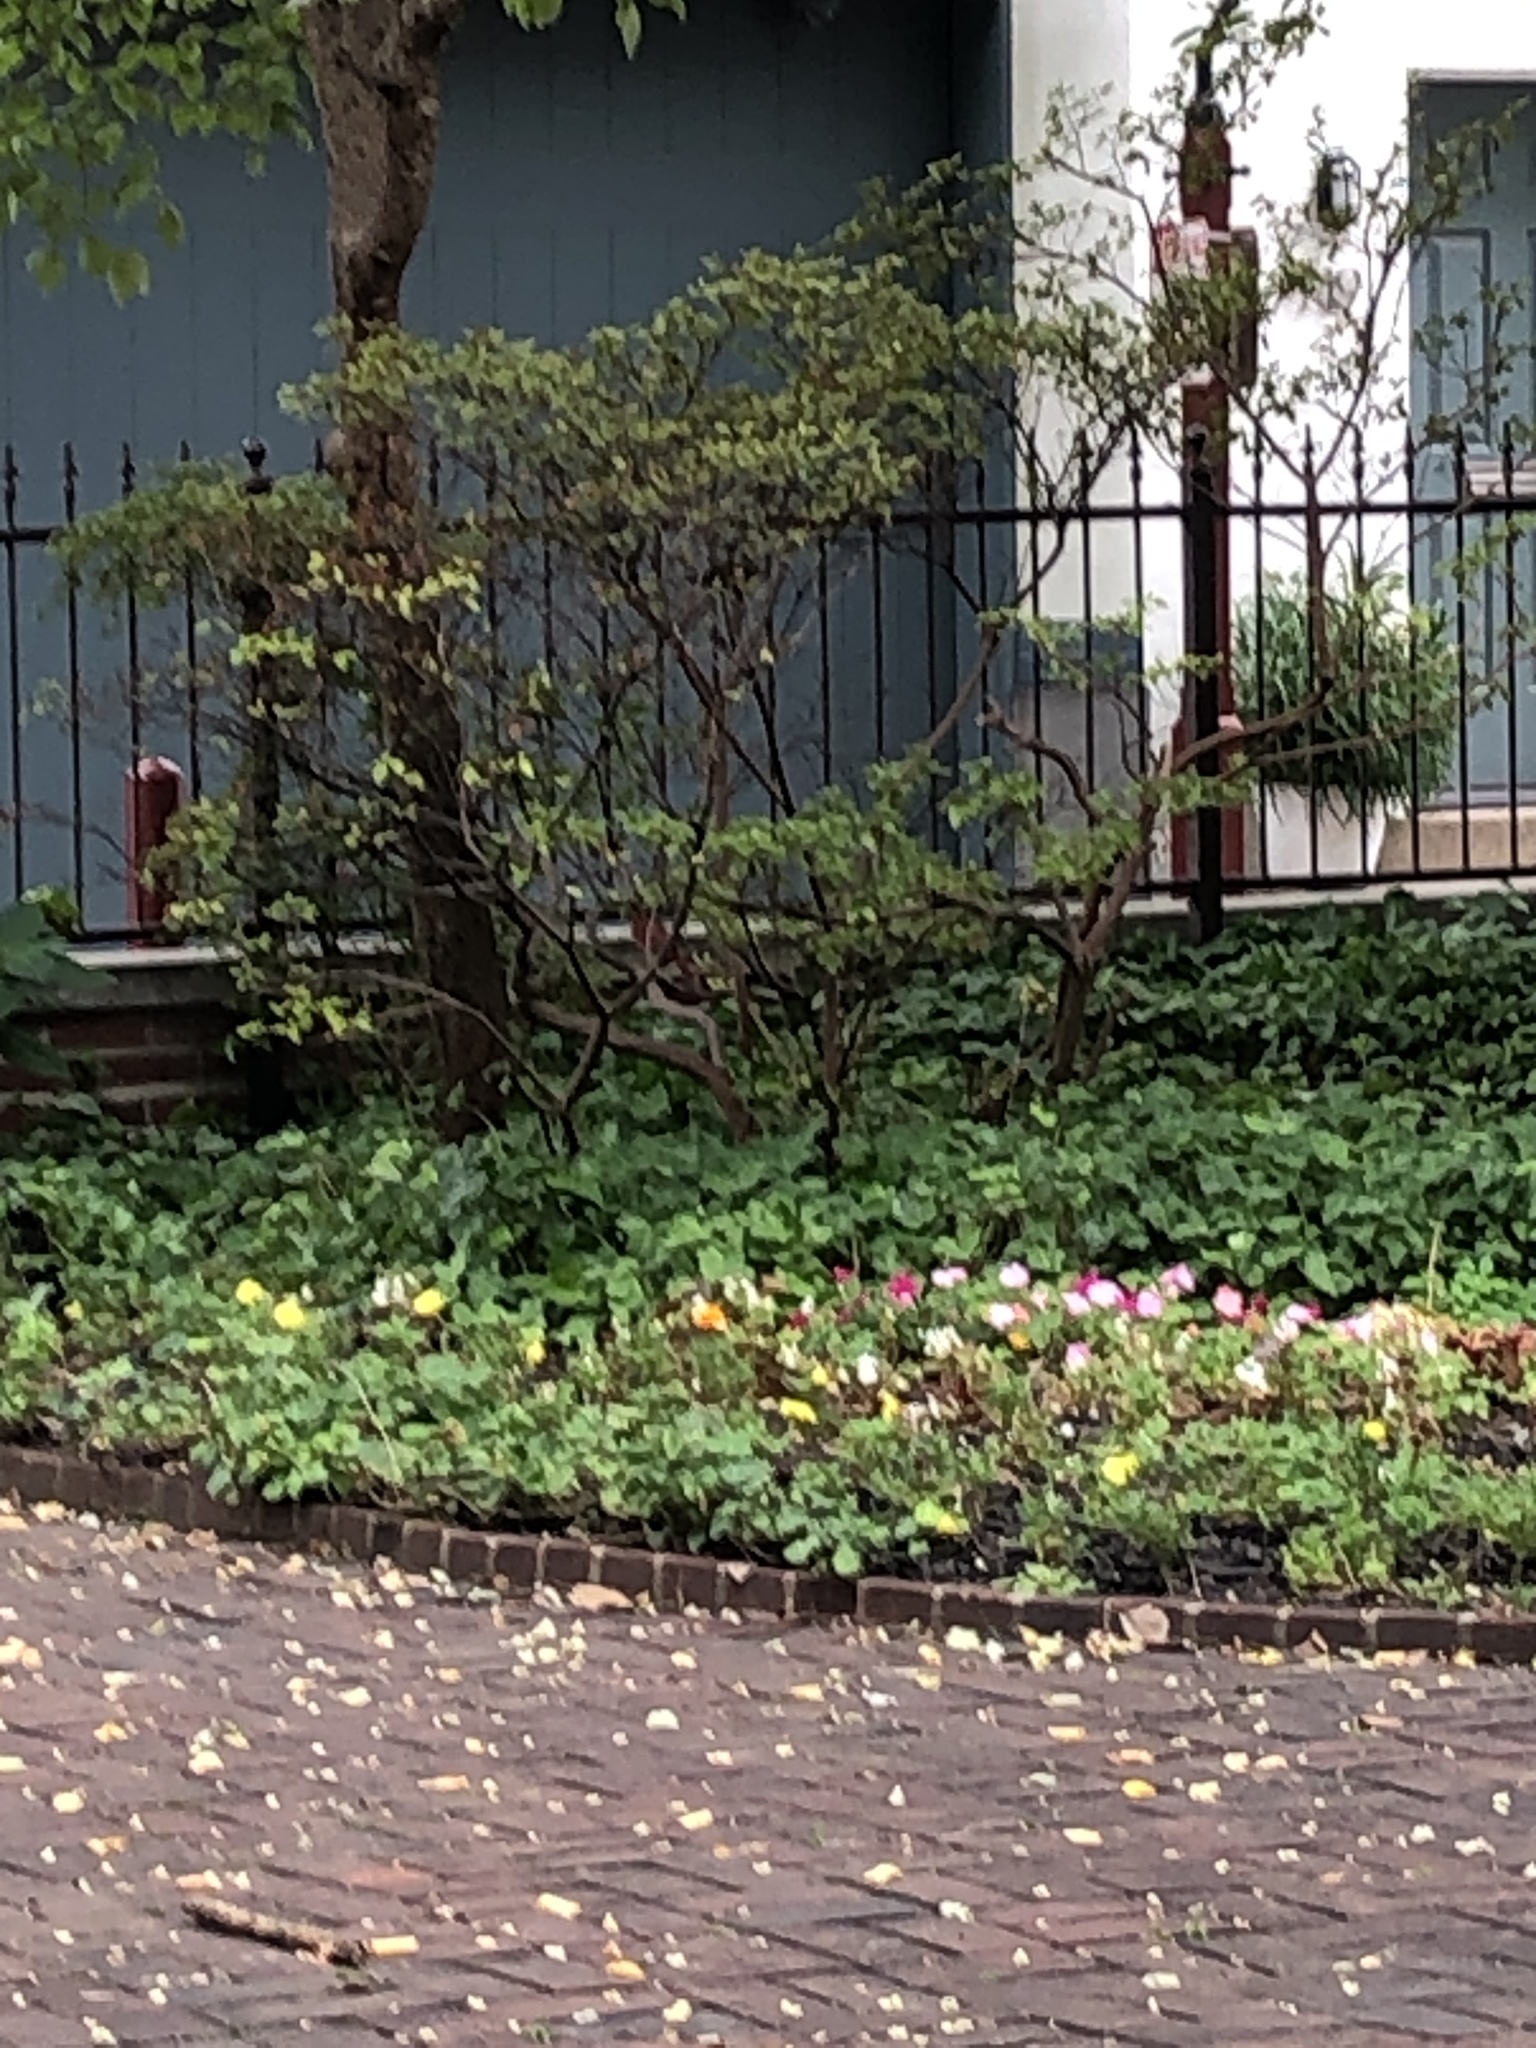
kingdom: Animalia
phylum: Chordata
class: Aves
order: Passeriformes
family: Cardinalidae
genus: Cardinalis
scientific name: Cardinalis cardinalis
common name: Northern cardinal
